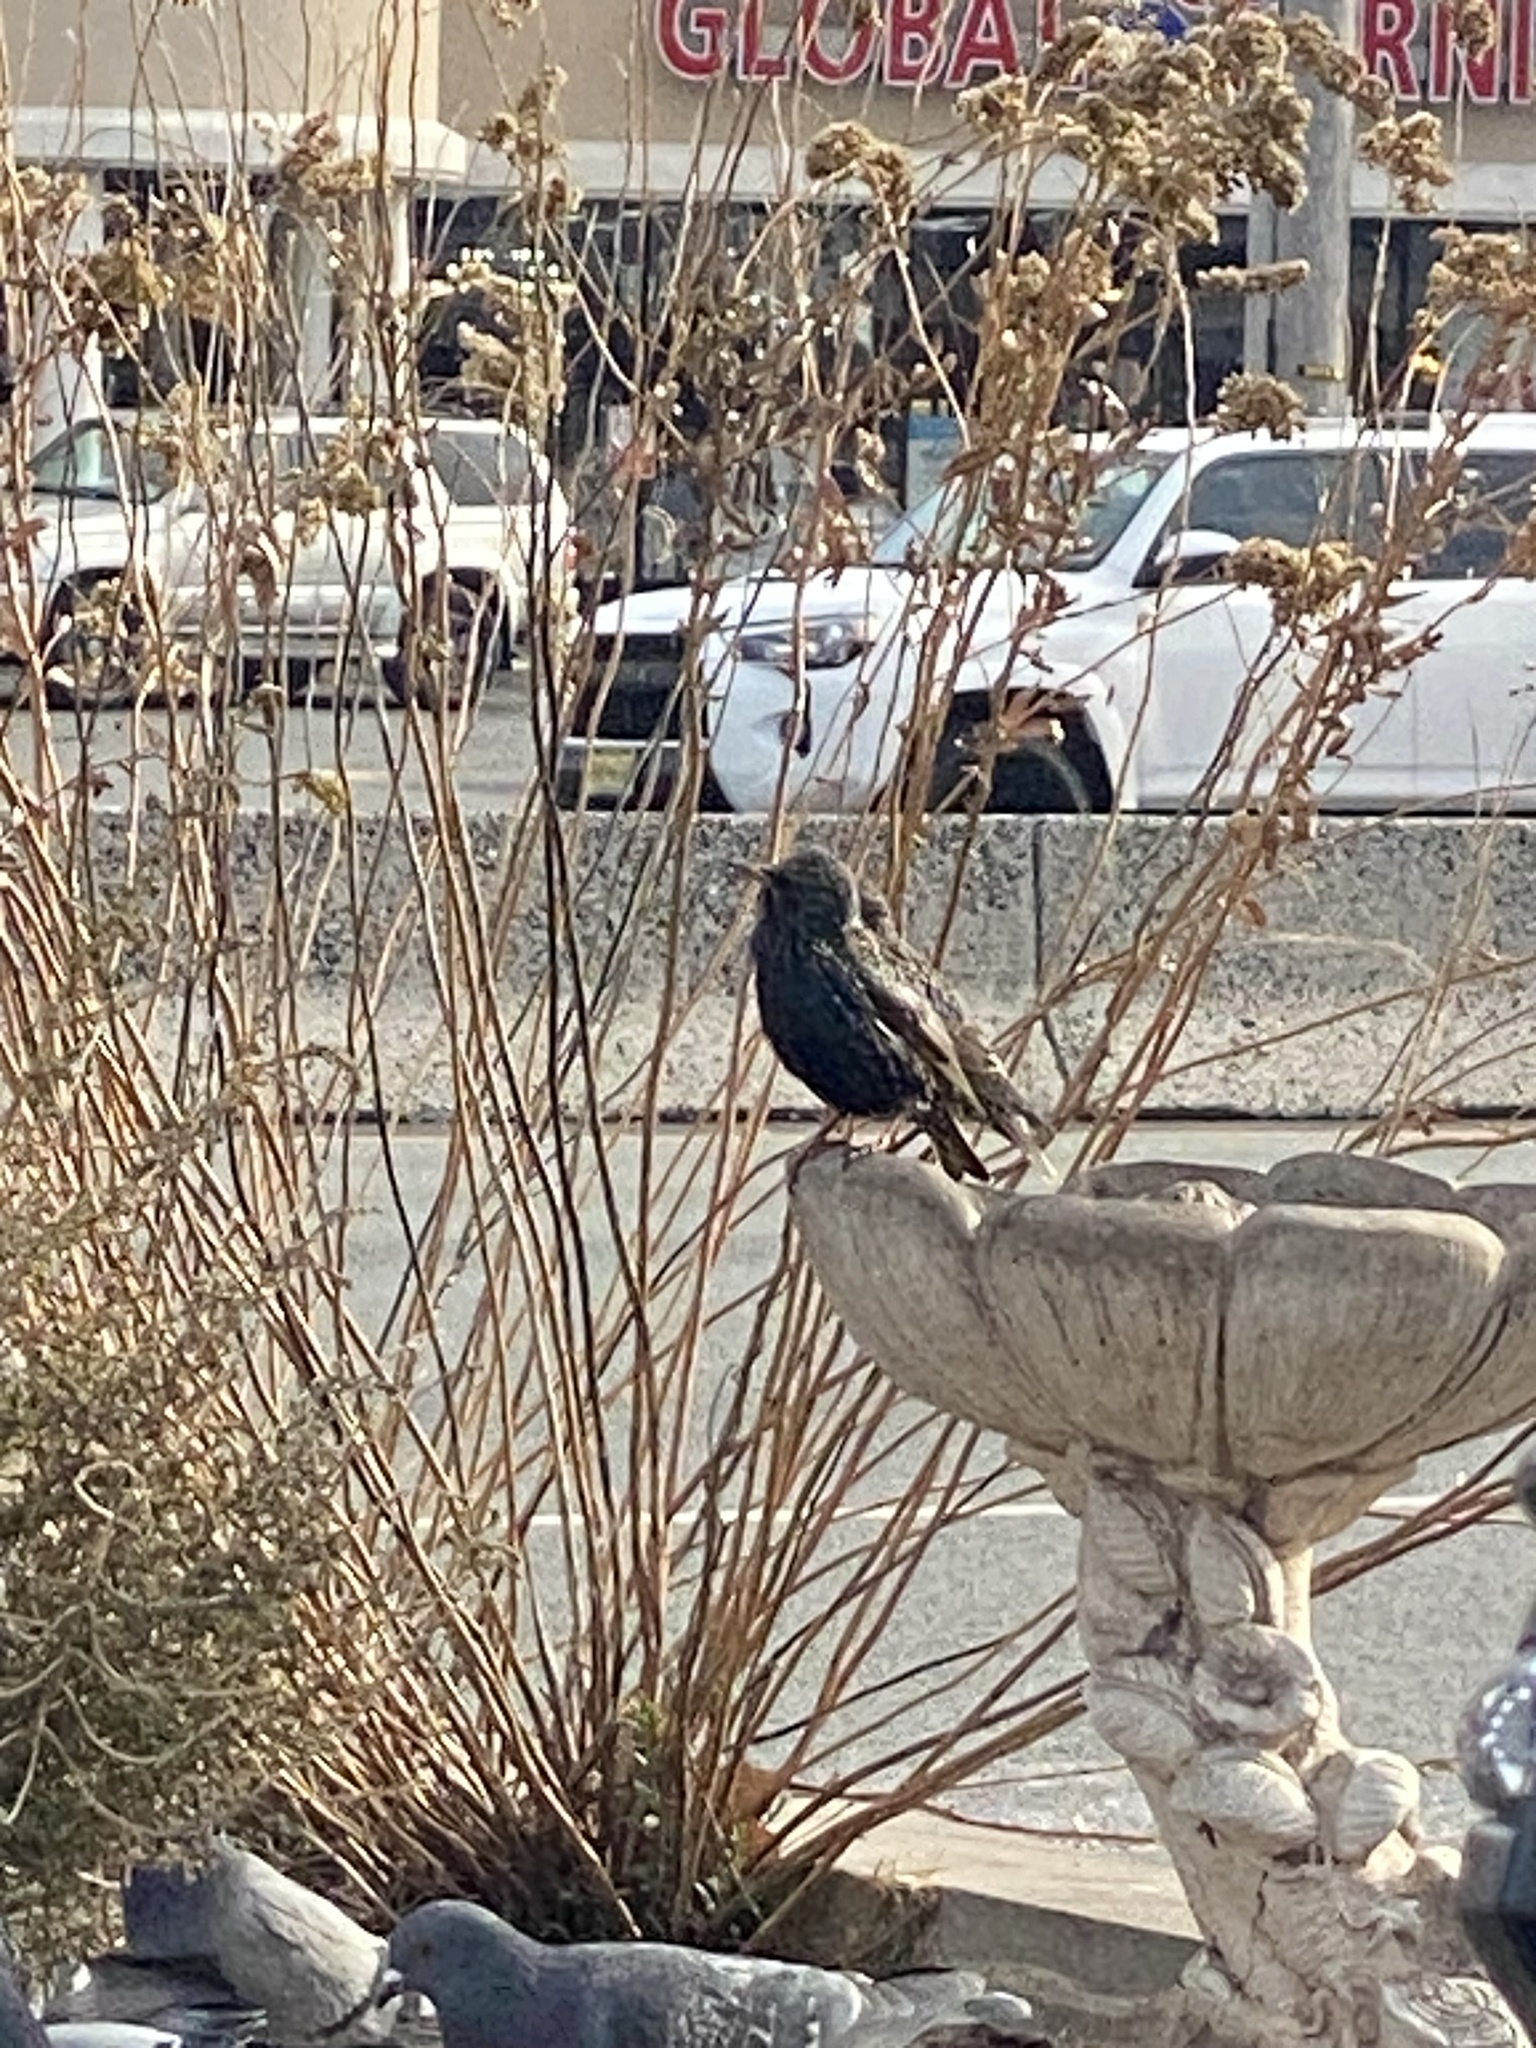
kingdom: Animalia
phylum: Chordata
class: Aves
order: Passeriformes
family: Sturnidae
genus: Sturnus
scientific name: Sturnus vulgaris
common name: Common starling
